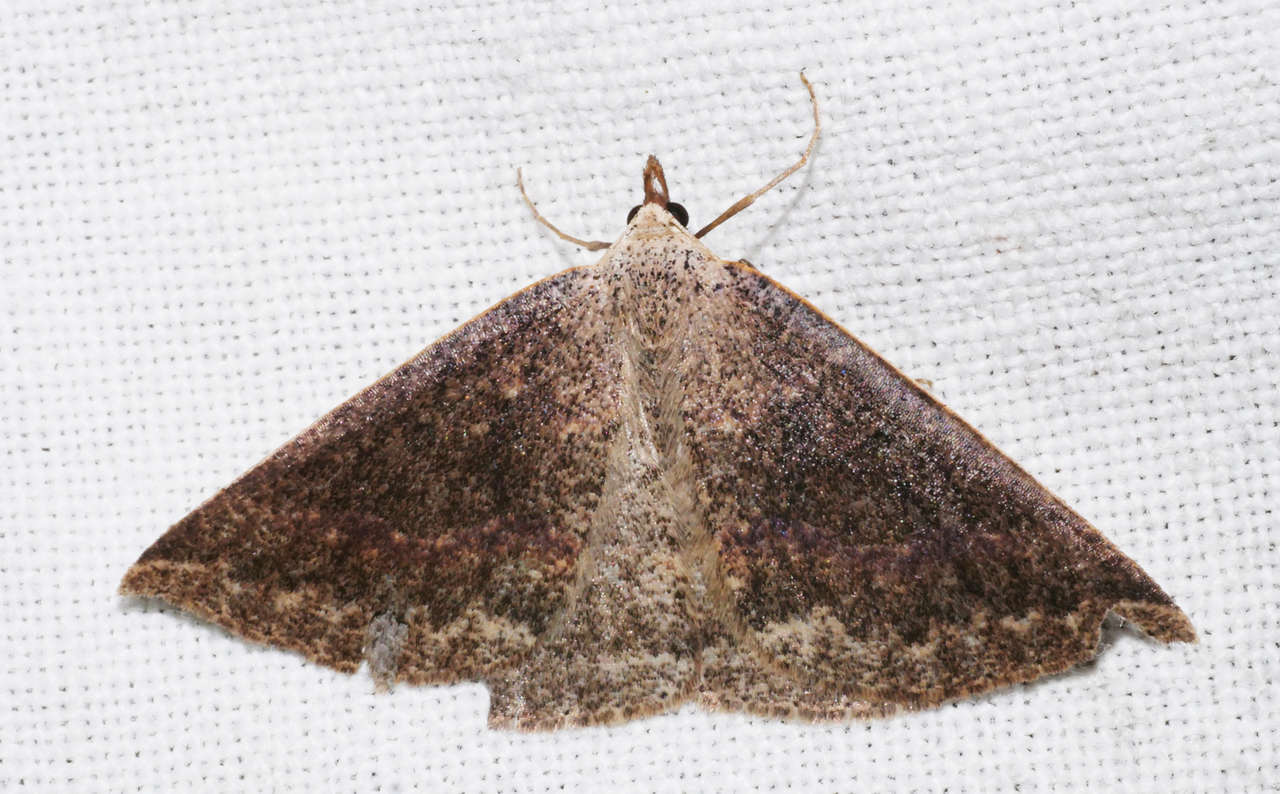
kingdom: Animalia
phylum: Arthropoda
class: Insecta
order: Lepidoptera
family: Geometridae
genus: Nearcha
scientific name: Nearcha ursaria
